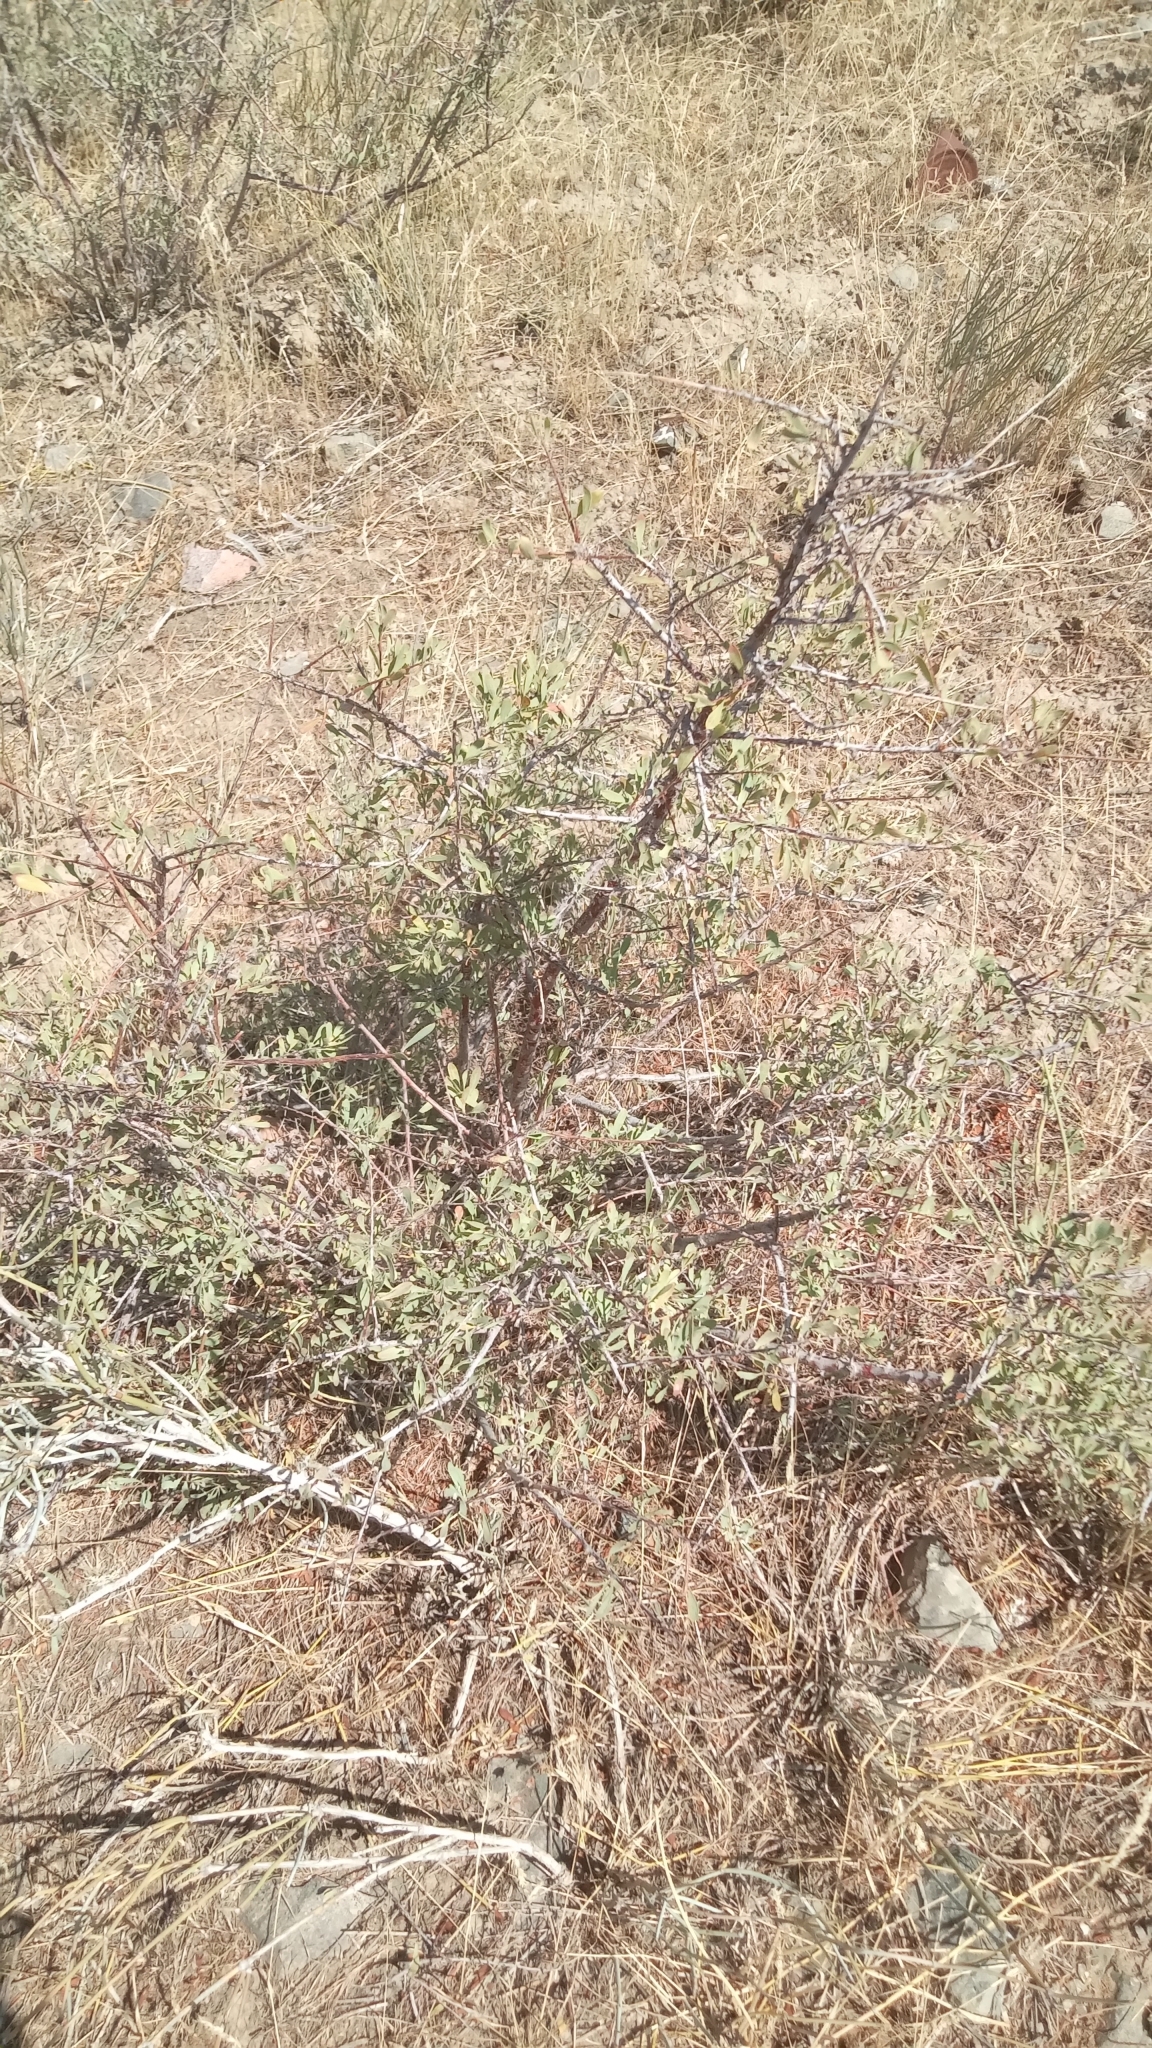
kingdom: Plantae
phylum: Tracheophyta
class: Magnoliopsida
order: Rosales
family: Rosaceae
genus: Spiraea
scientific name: Spiraea hypericifolia
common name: Iberian spirea
